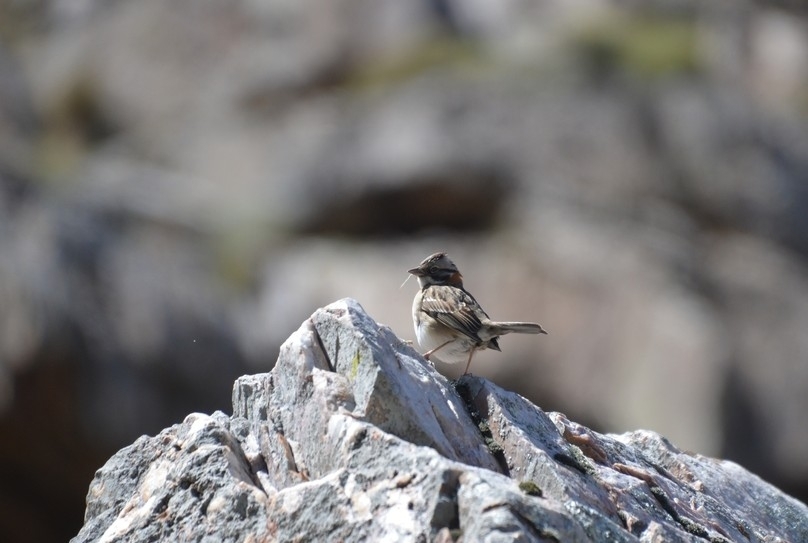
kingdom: Animalia
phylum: Chordata
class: Aves
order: Passeriformes
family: Passerellidae
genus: Zonotrichia
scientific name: Zonotrichia capensis
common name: Rufous-collared sparrow
